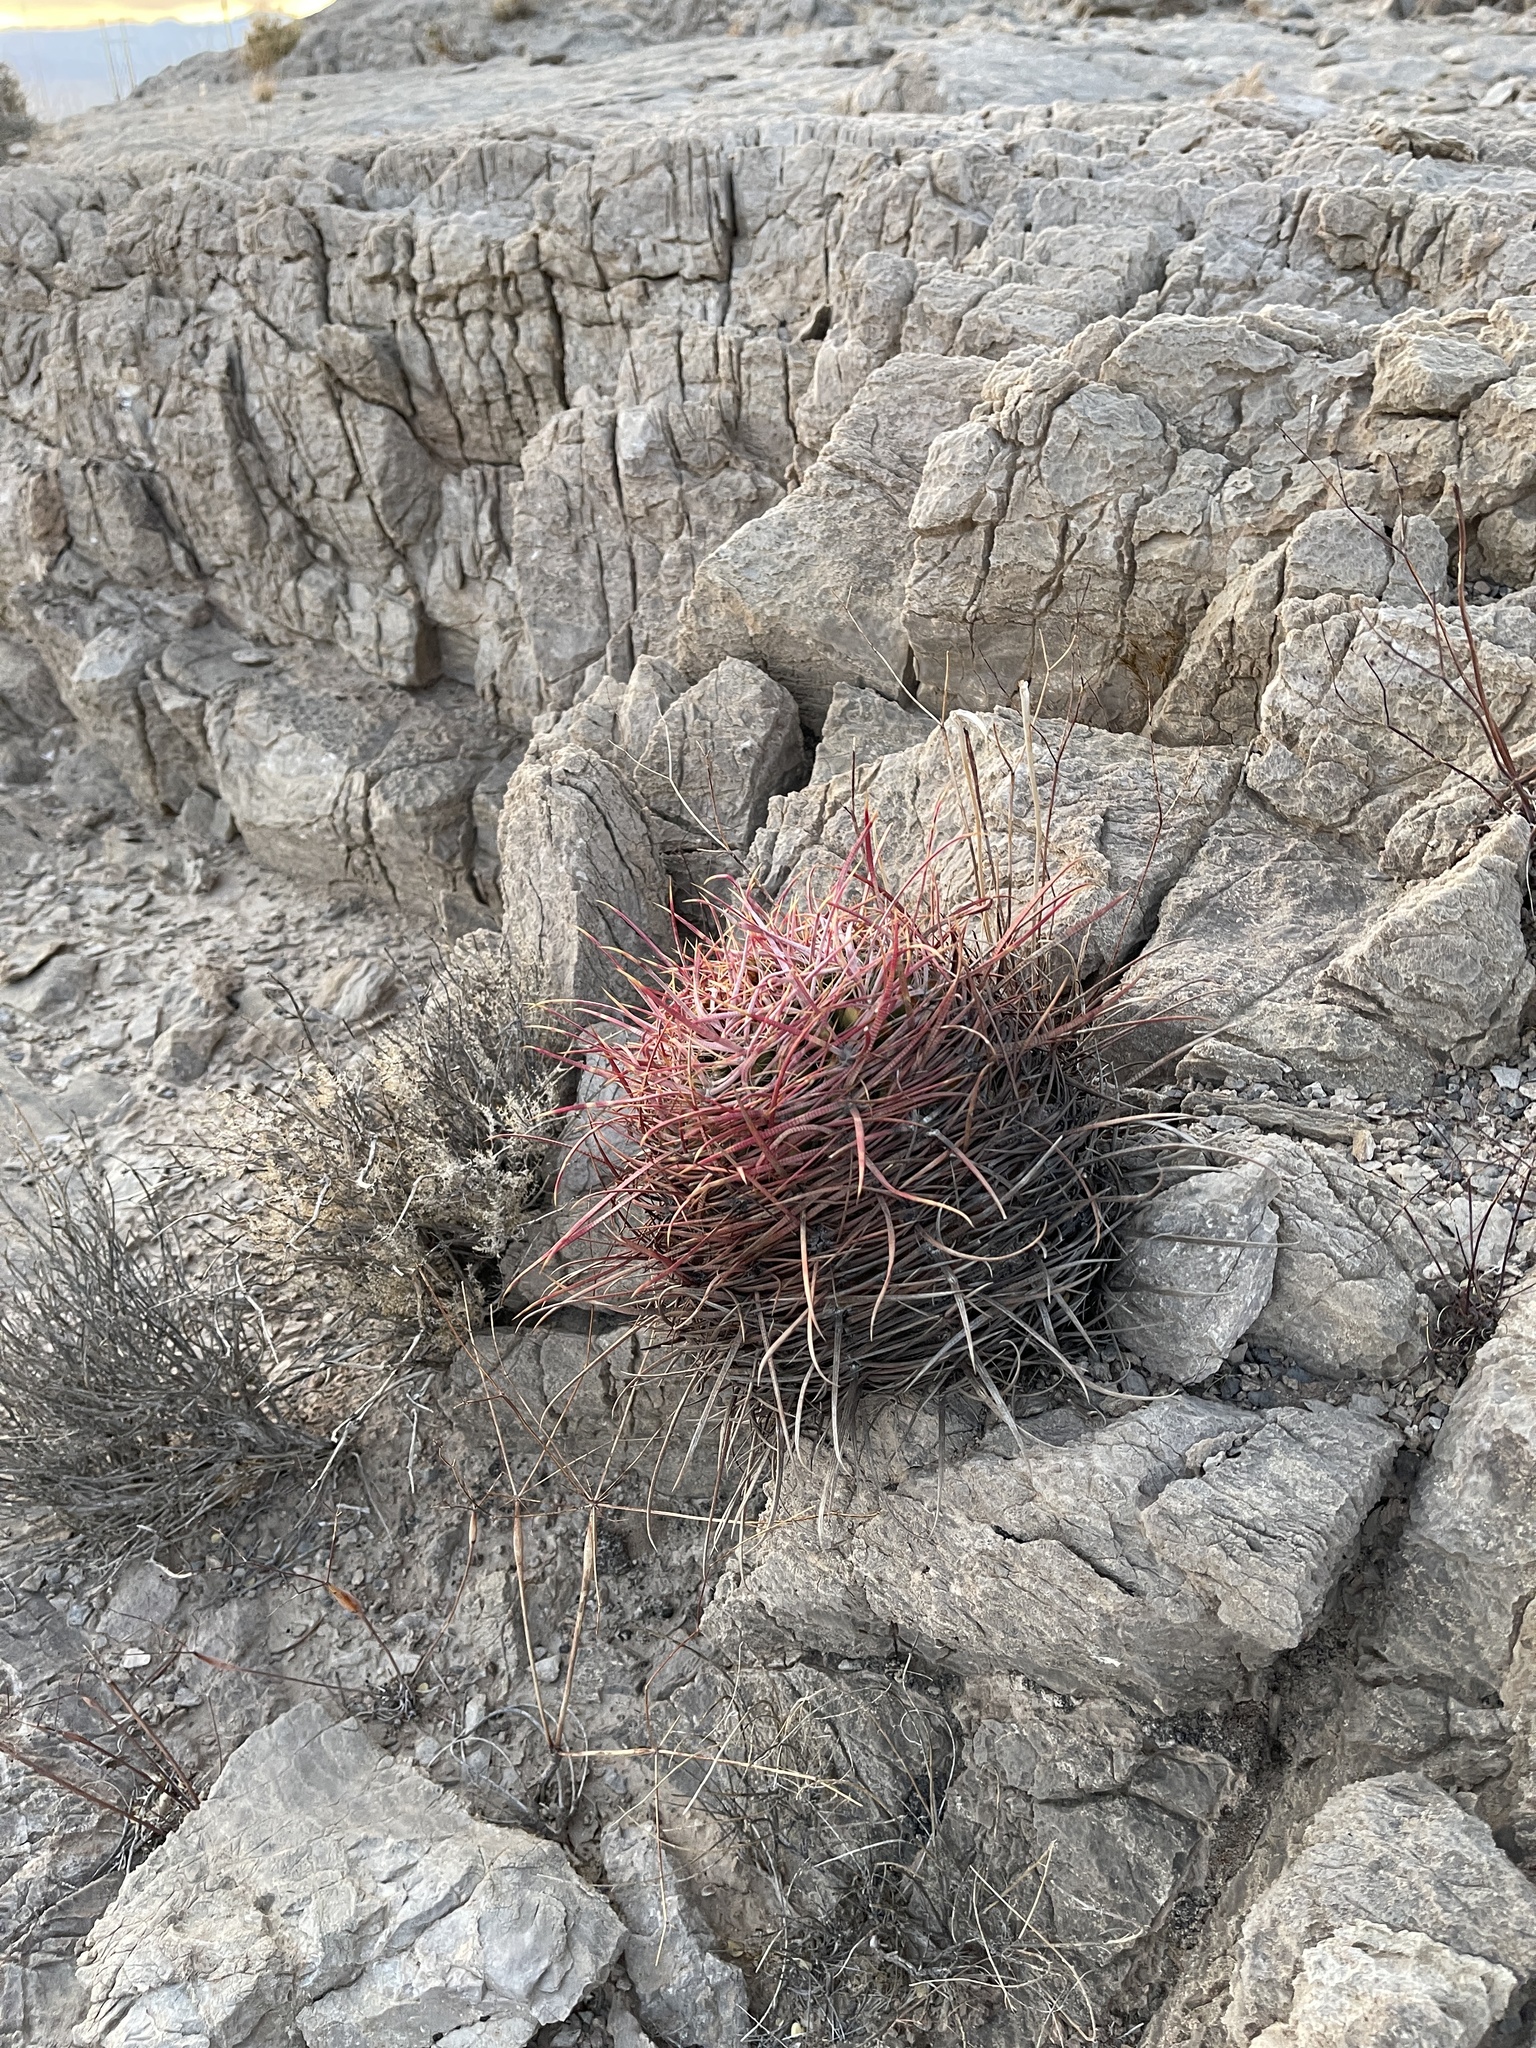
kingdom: Plantae
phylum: Tracheophyta
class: Magnoliopsida
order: Caryophyllales
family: Cactaceae
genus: Ferocactus
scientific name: Ferocactus cylindraceus
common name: California barrel cactus
